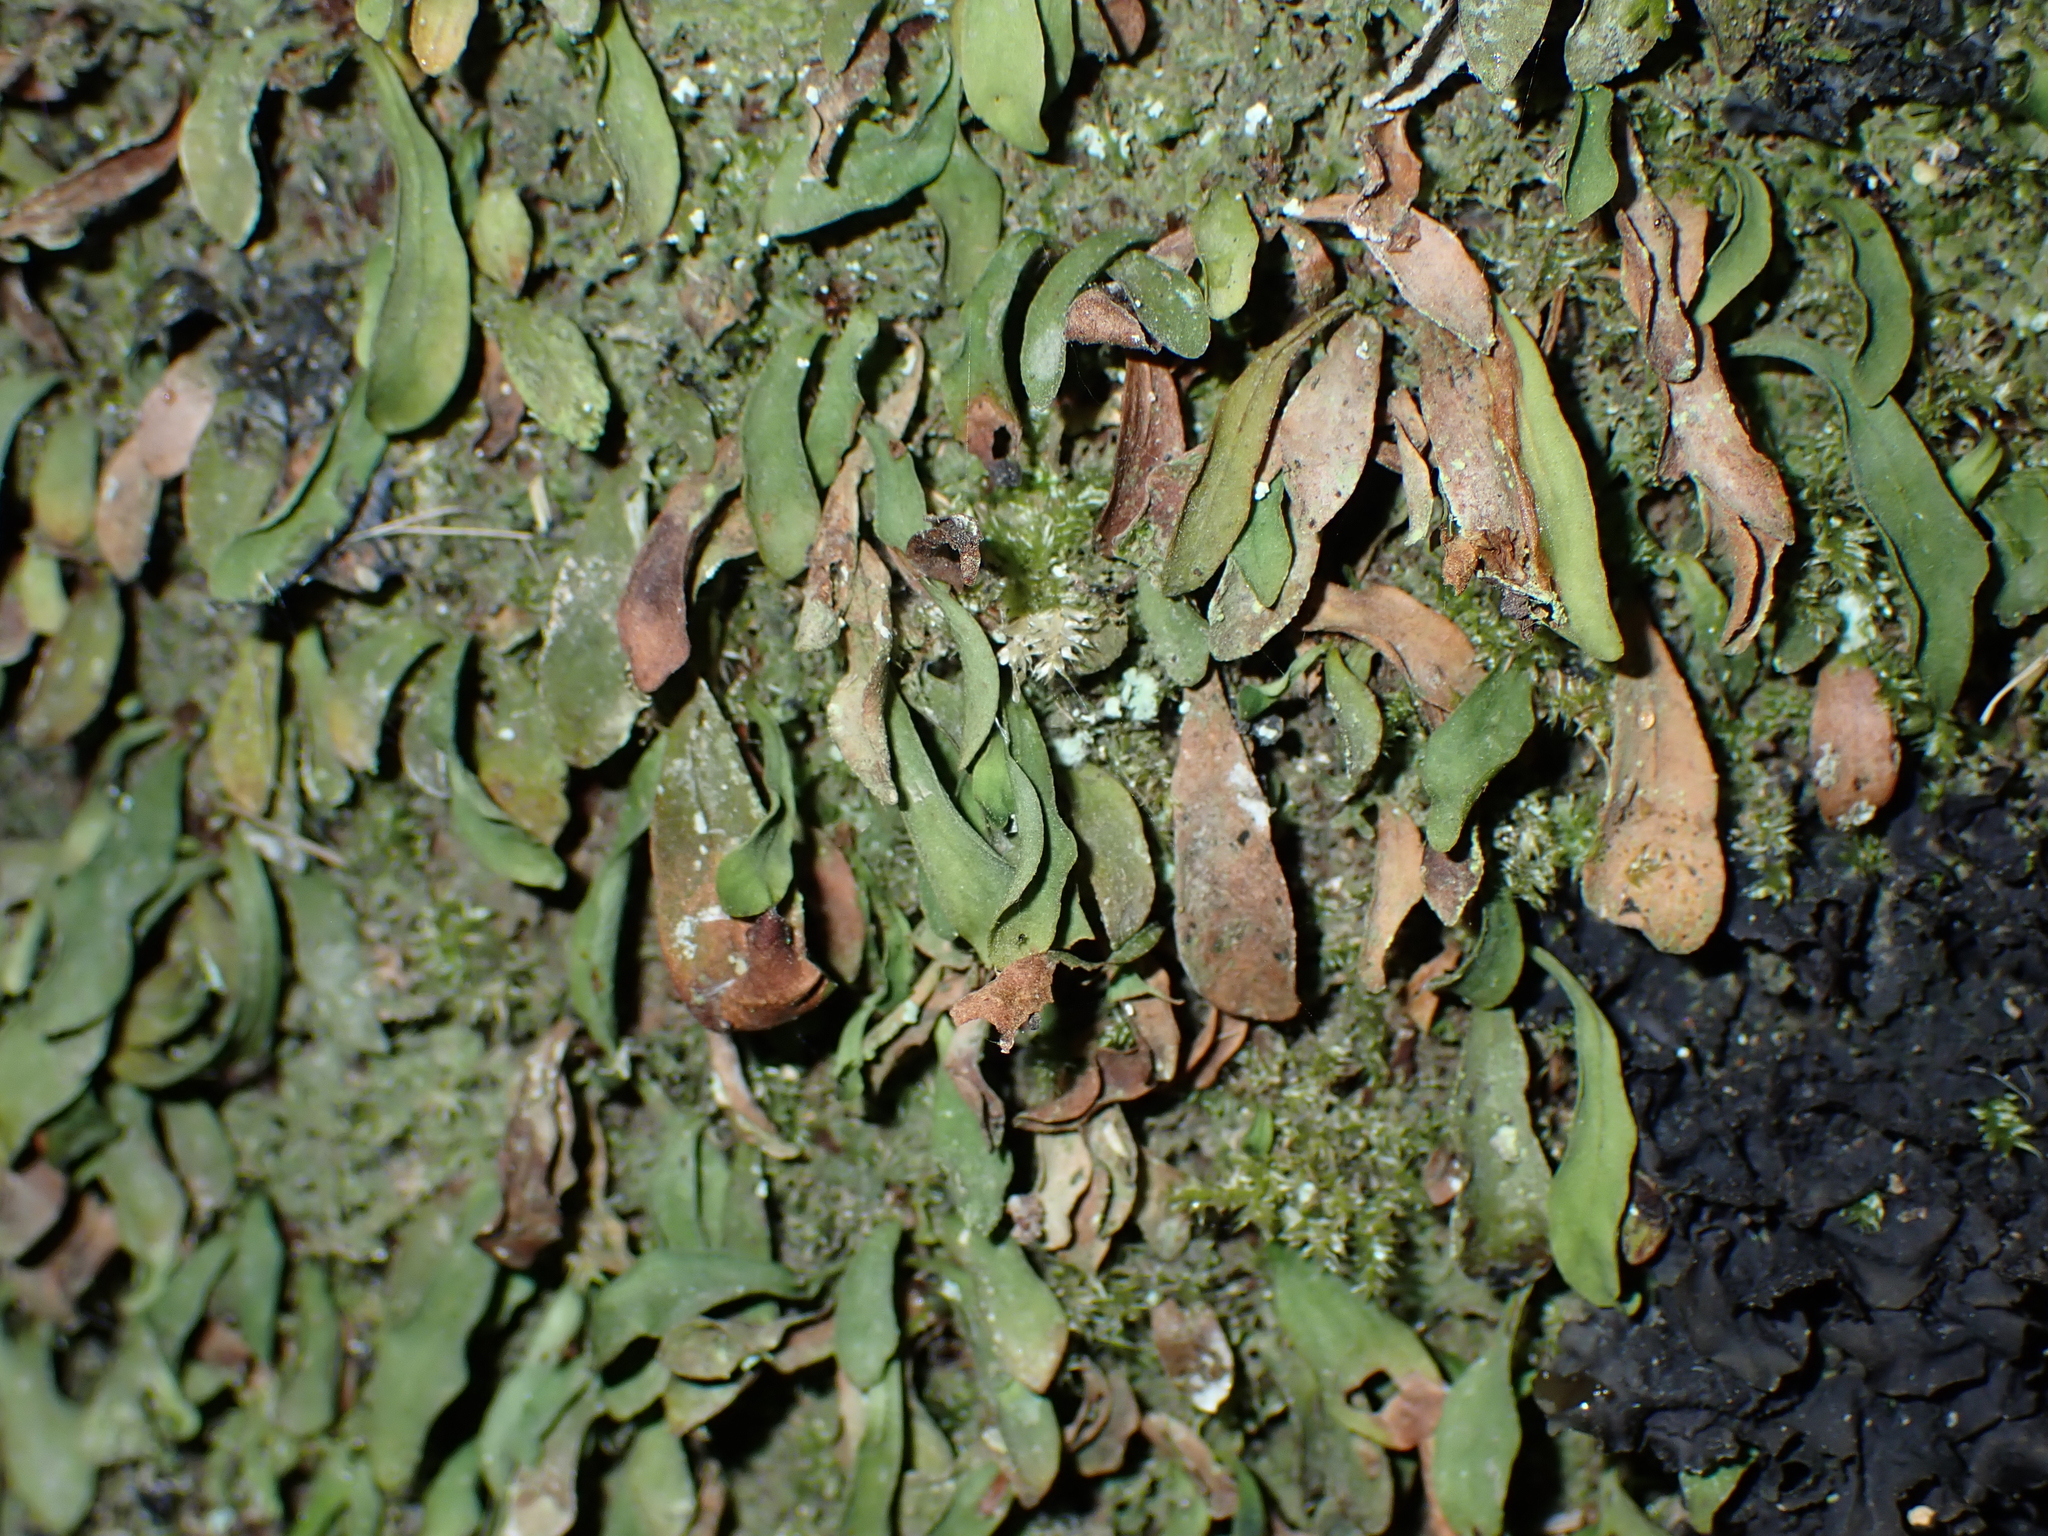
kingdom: Plantae
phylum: Tracheophyta
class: Polypodiopsida
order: Polypodiales
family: Polypodiaceae
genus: Loxogramme
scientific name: Loxogramme dictyopteris
